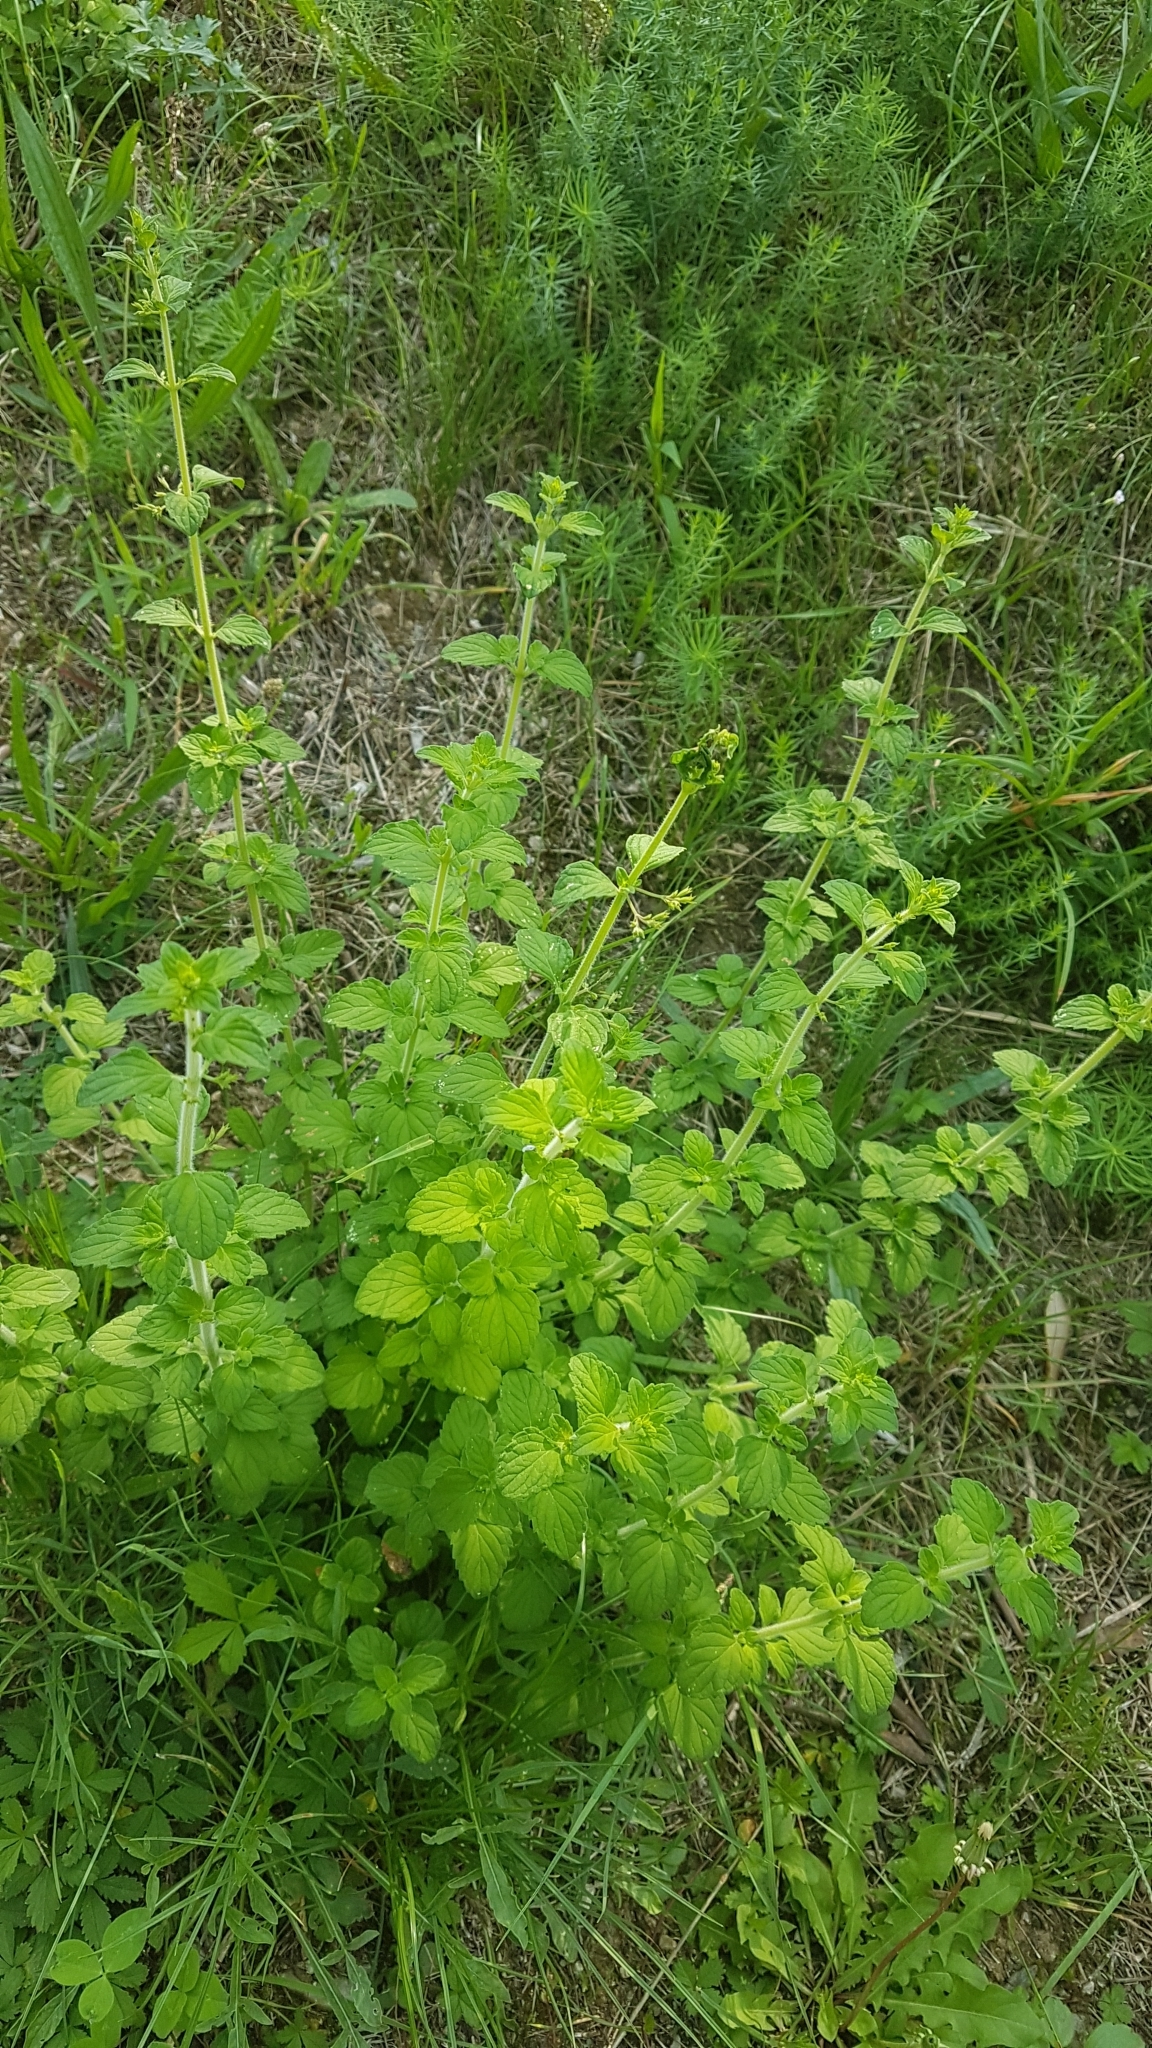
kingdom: Plantae
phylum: Tracheophyta
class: Magnoliopsida
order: Lamiales
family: Lamiaceae
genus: Clinopodium
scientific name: Clinopodium nepeta
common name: Lesser calamint
